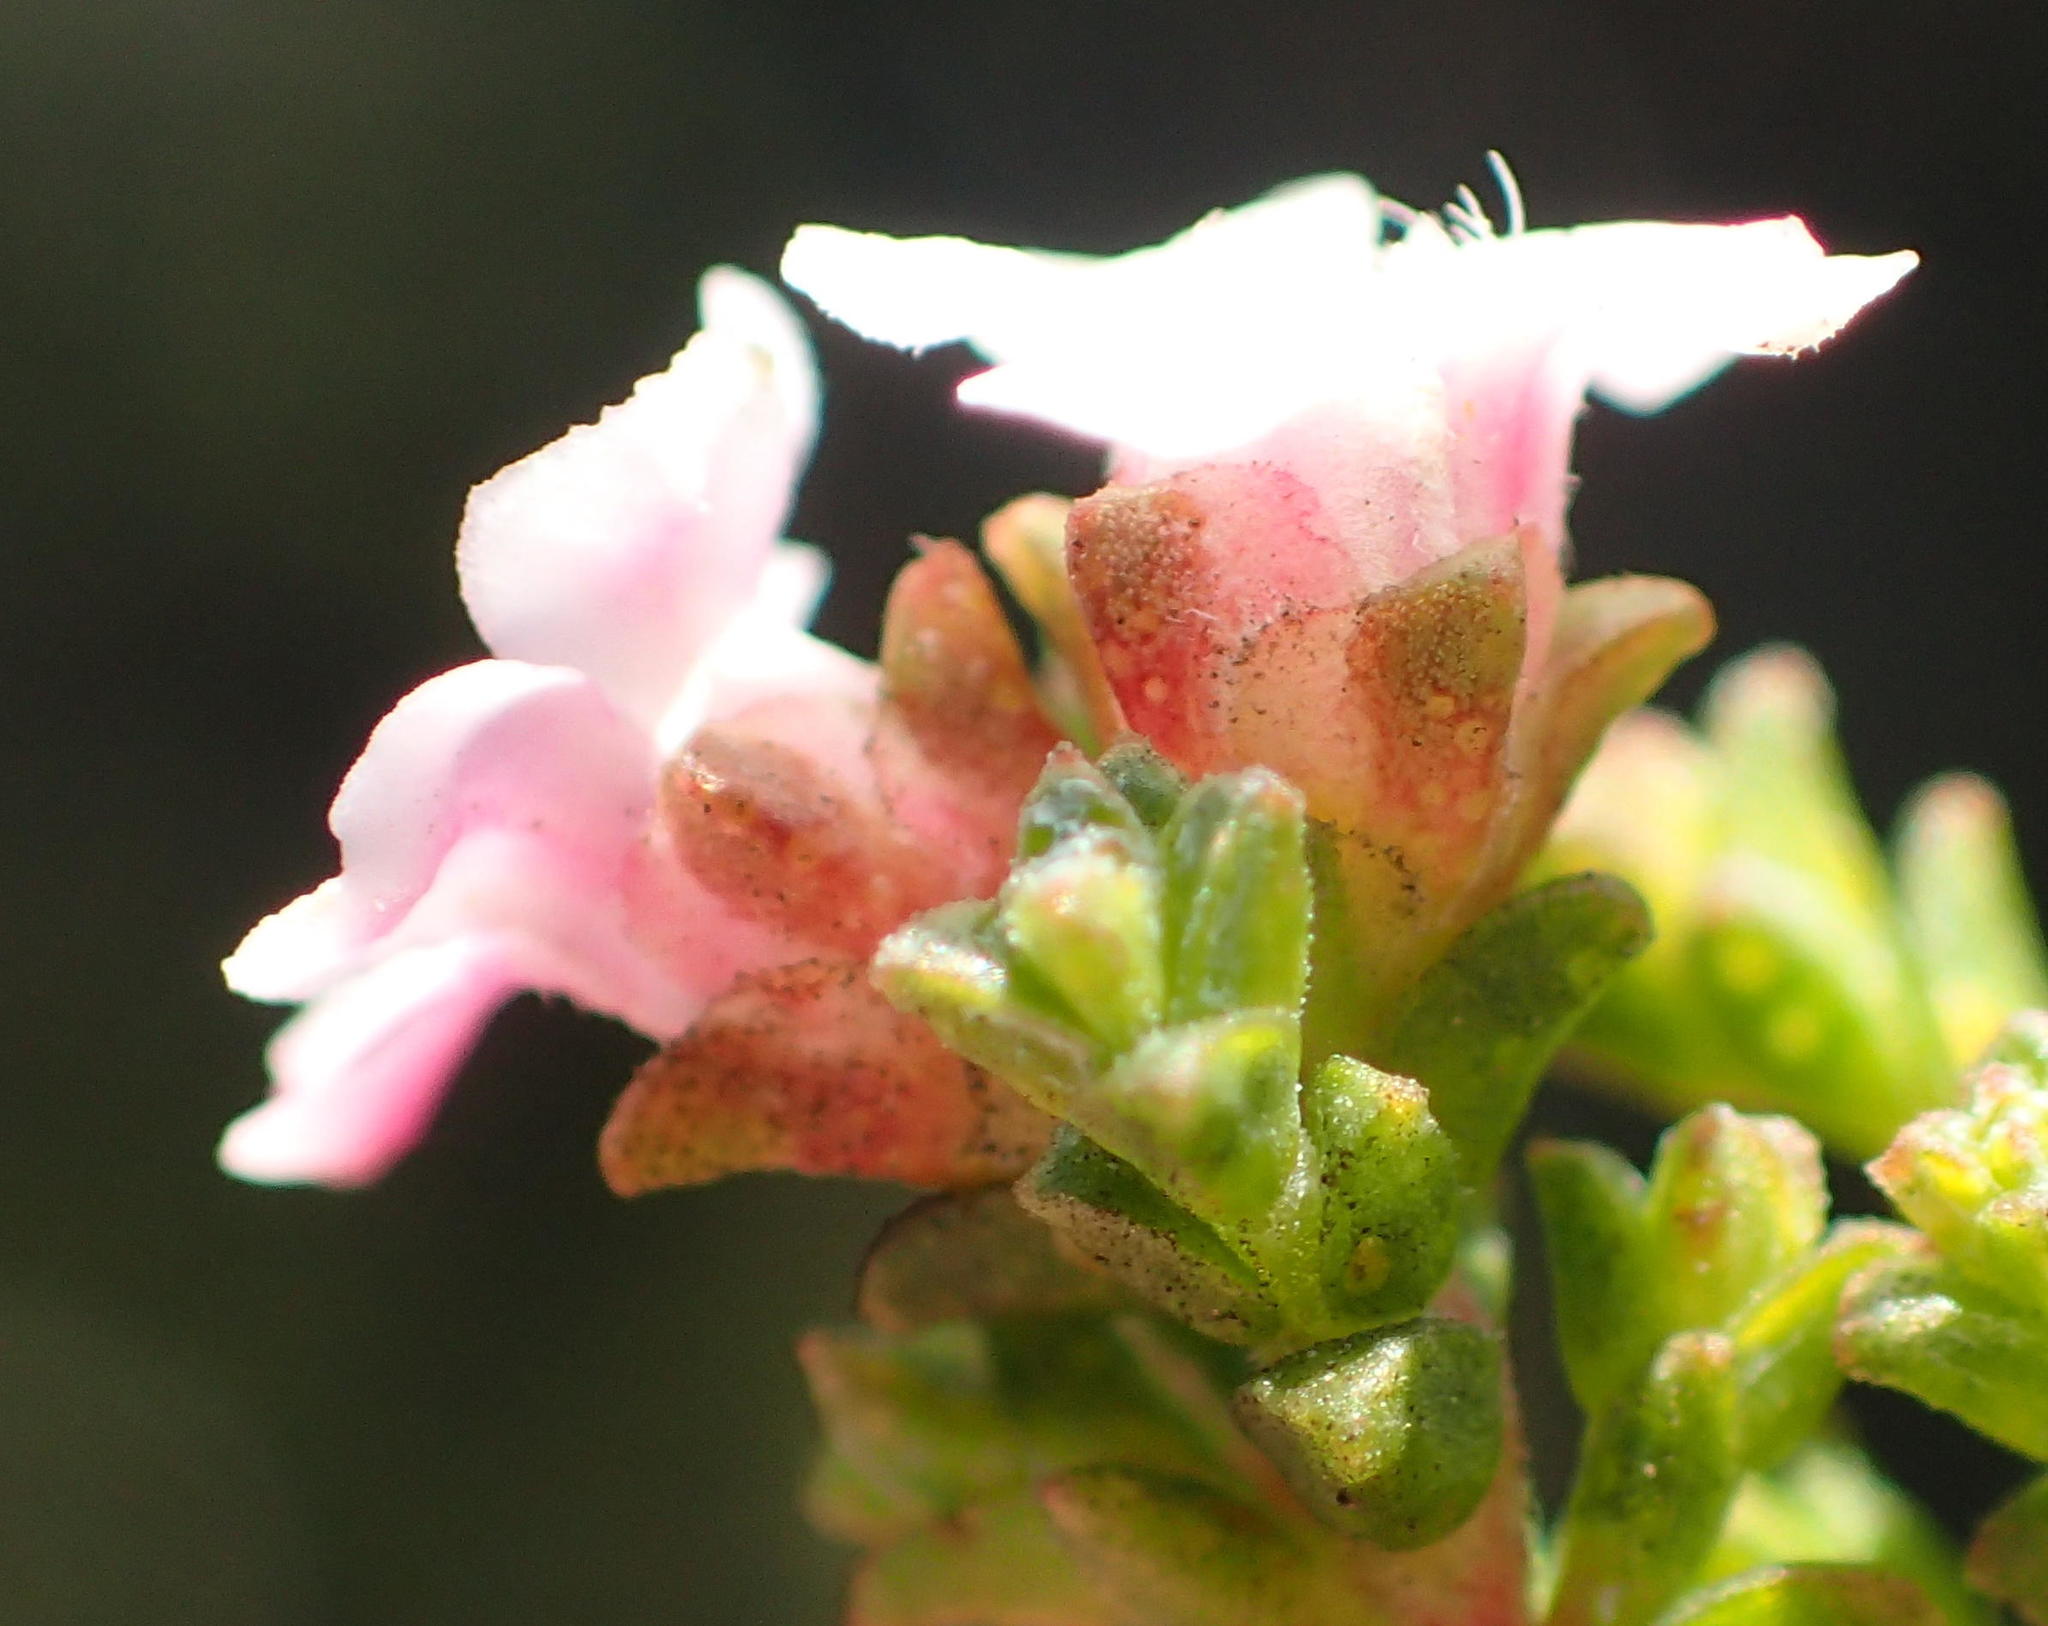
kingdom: Plantae
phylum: Tracheophyta
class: Magnoliopsida
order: Sapindales
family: Rutaceae
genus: Euchaetis
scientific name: Euchaetis albertiniana
